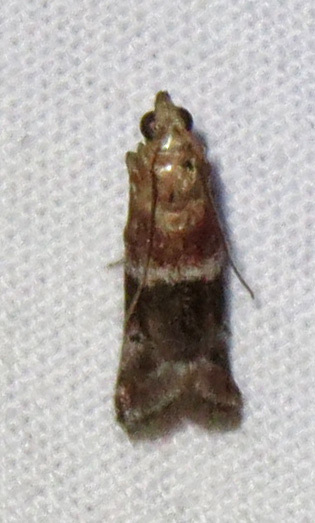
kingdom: Animalia
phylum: Arthropoda
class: Insecta
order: Lepidoptera
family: Pyralidae
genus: Moodna
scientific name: Moodna ostrinella
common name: Darker moodna moth
